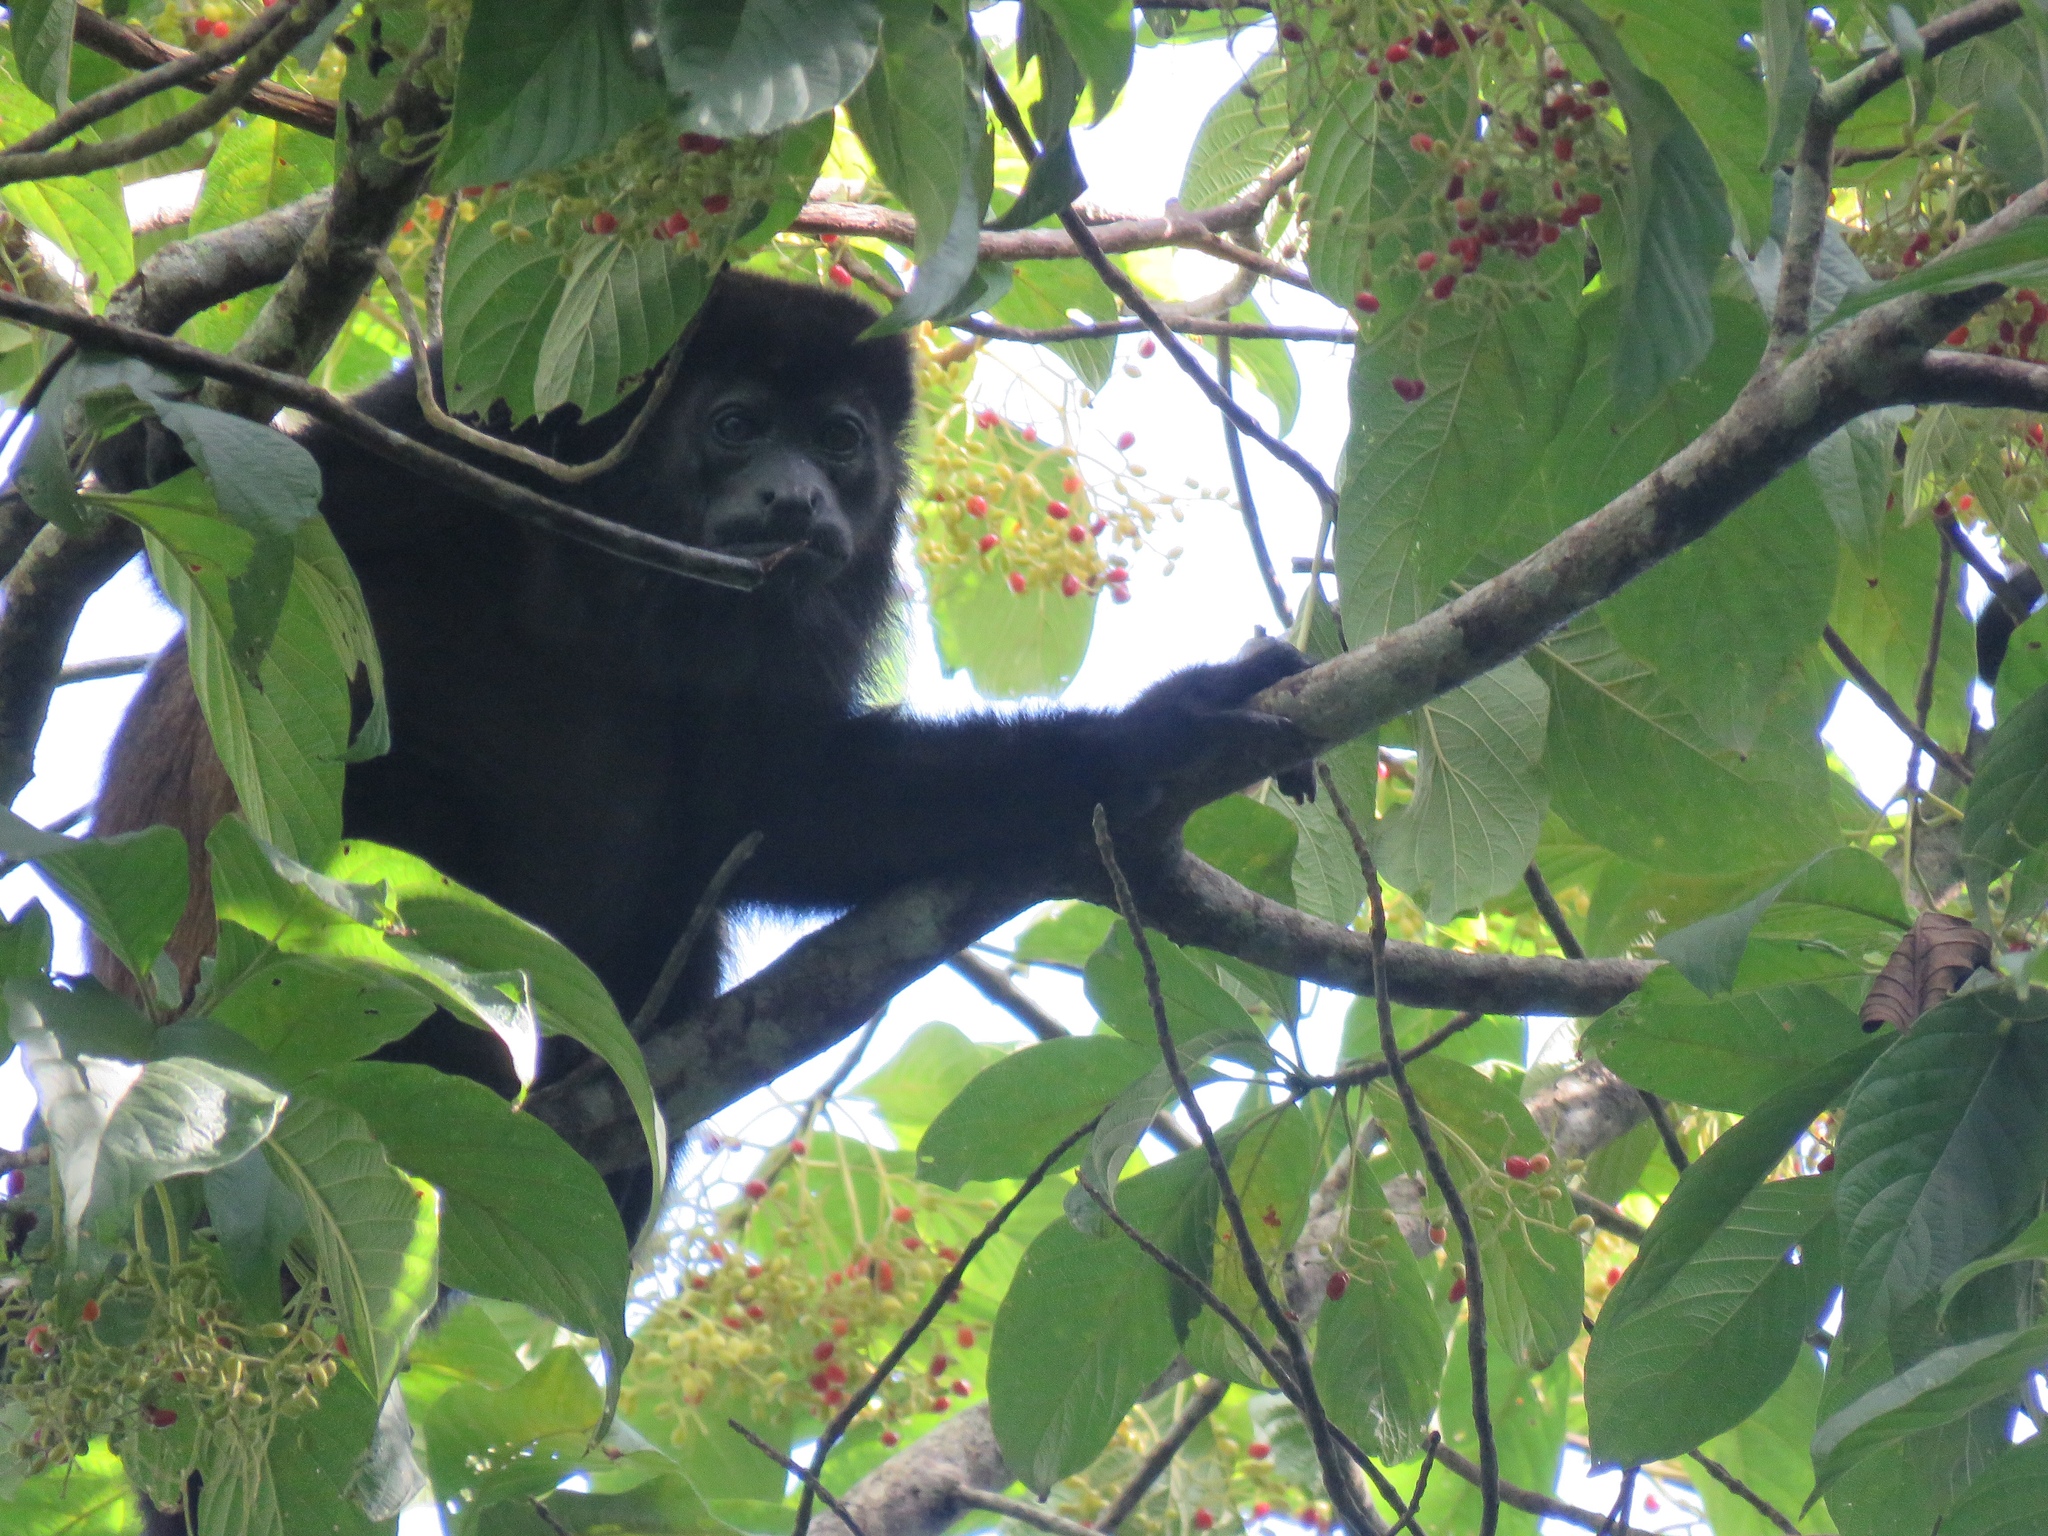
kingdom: Animalia
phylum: Chordata
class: Mammalia
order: Primates
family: Atelidae
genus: Alouatta
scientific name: Alouatta palliata
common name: Mantled howler
